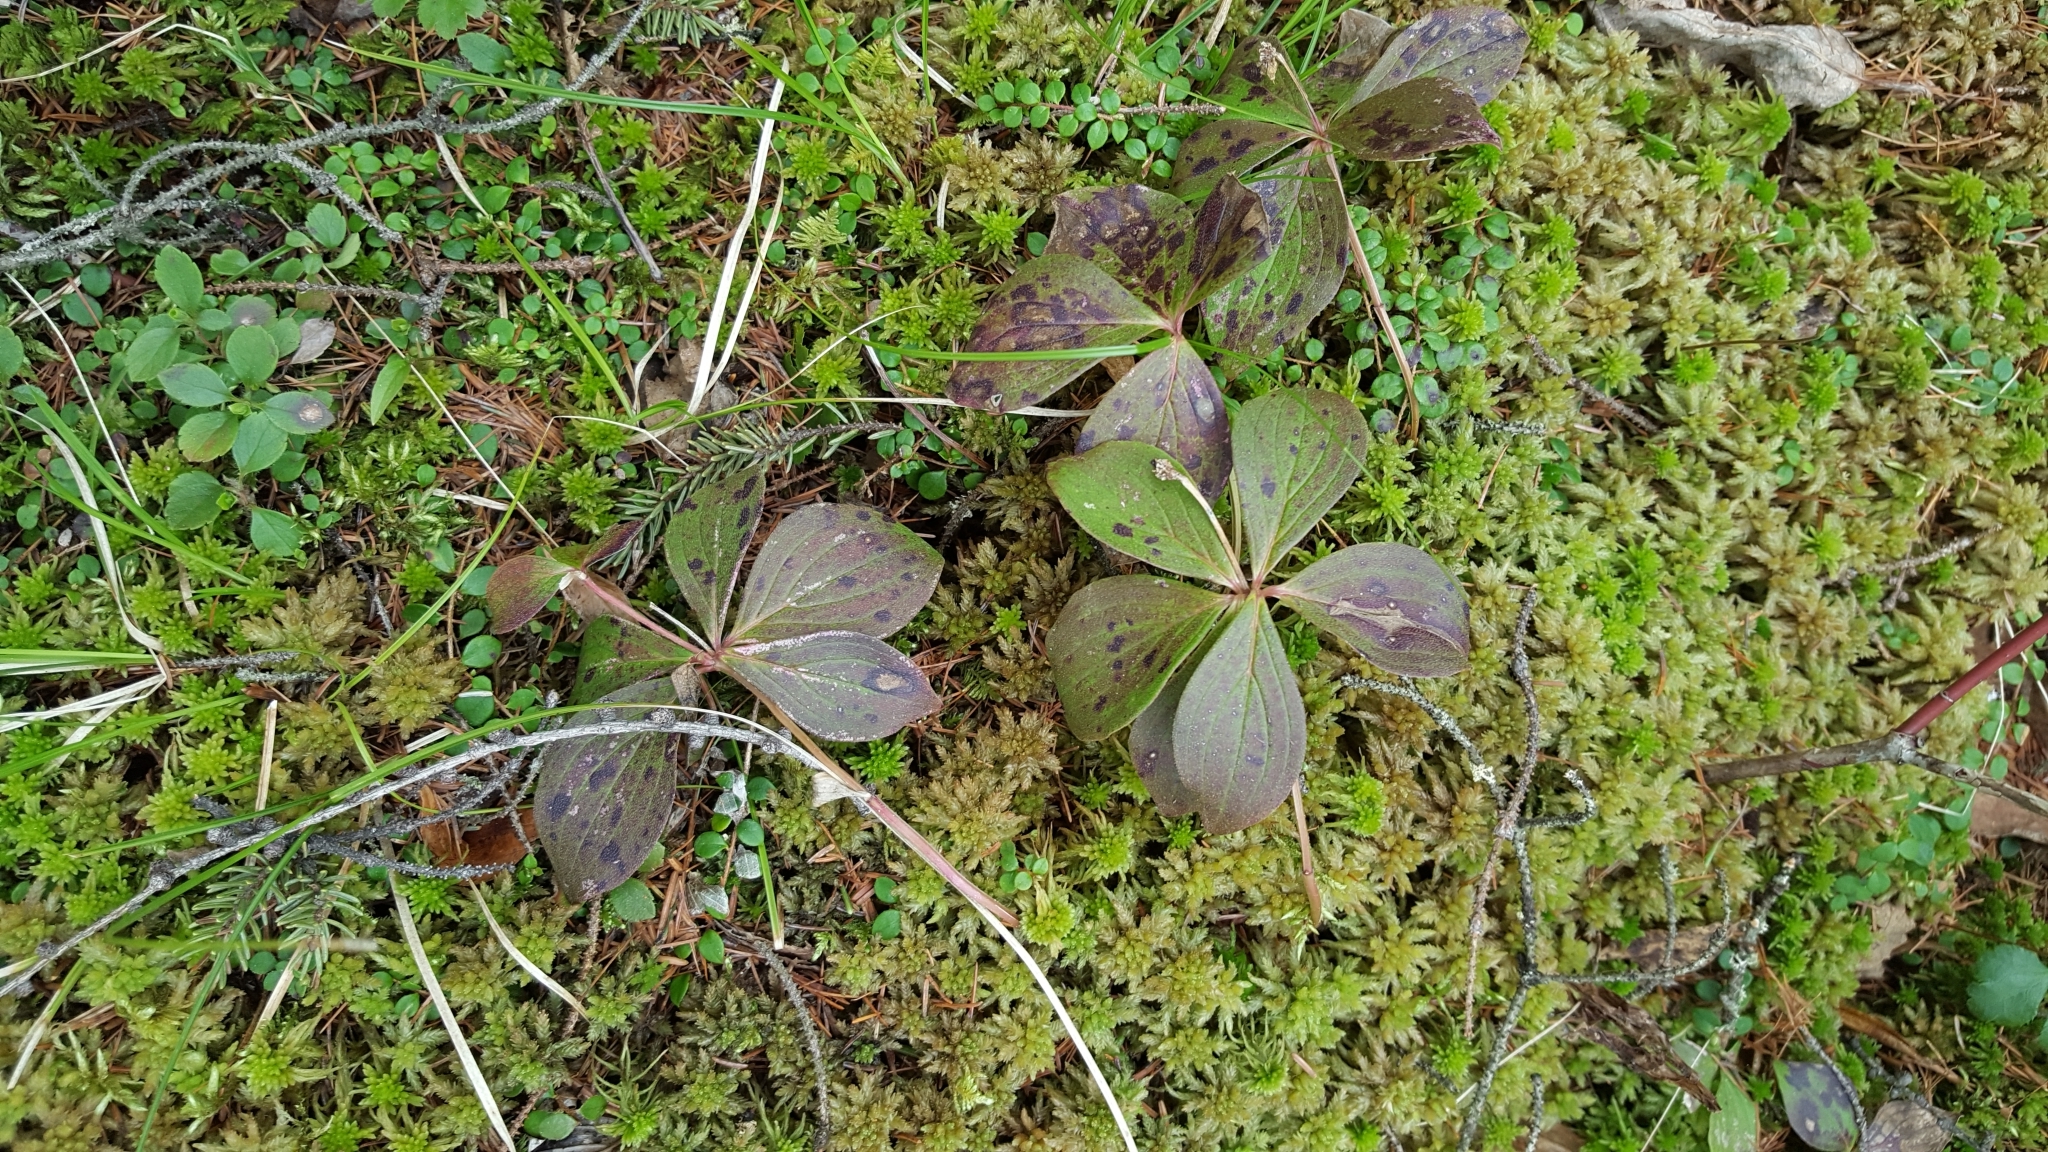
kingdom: Plantae
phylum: Tracheophyta
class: Magnoliopsida
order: Cornales
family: Cornaceae
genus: Cornus
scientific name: Cornus canadensis
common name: Creeping dogwood
